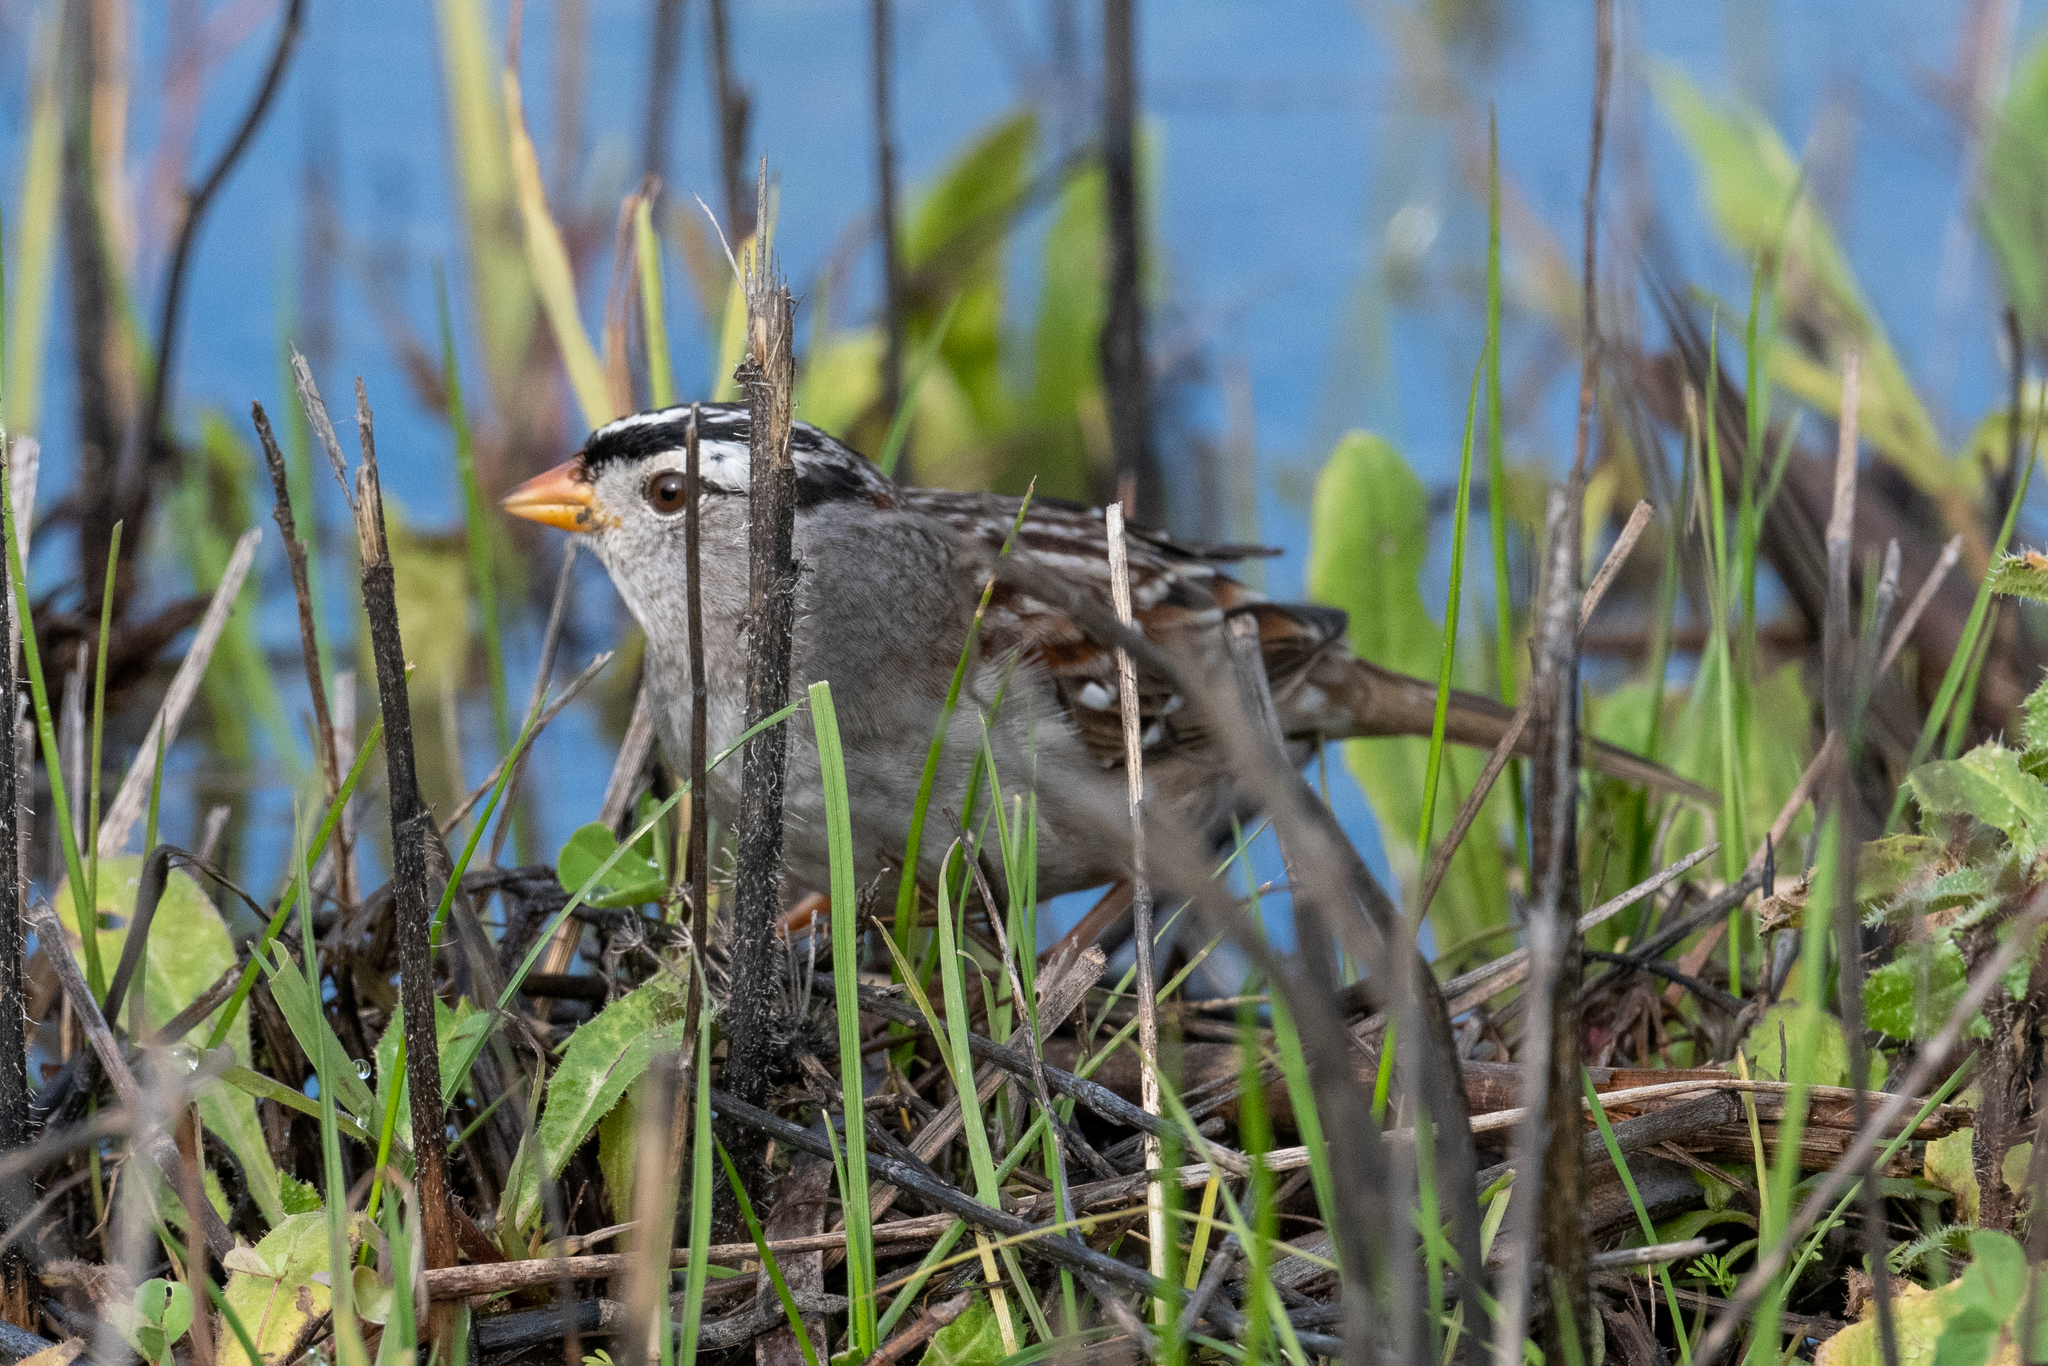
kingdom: Animalia
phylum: Chordata
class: Aves
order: Passeriformes
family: Passerellidae
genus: Zonotrichia
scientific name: Zonotrichia leucophrys
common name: White-crowned sparrow
